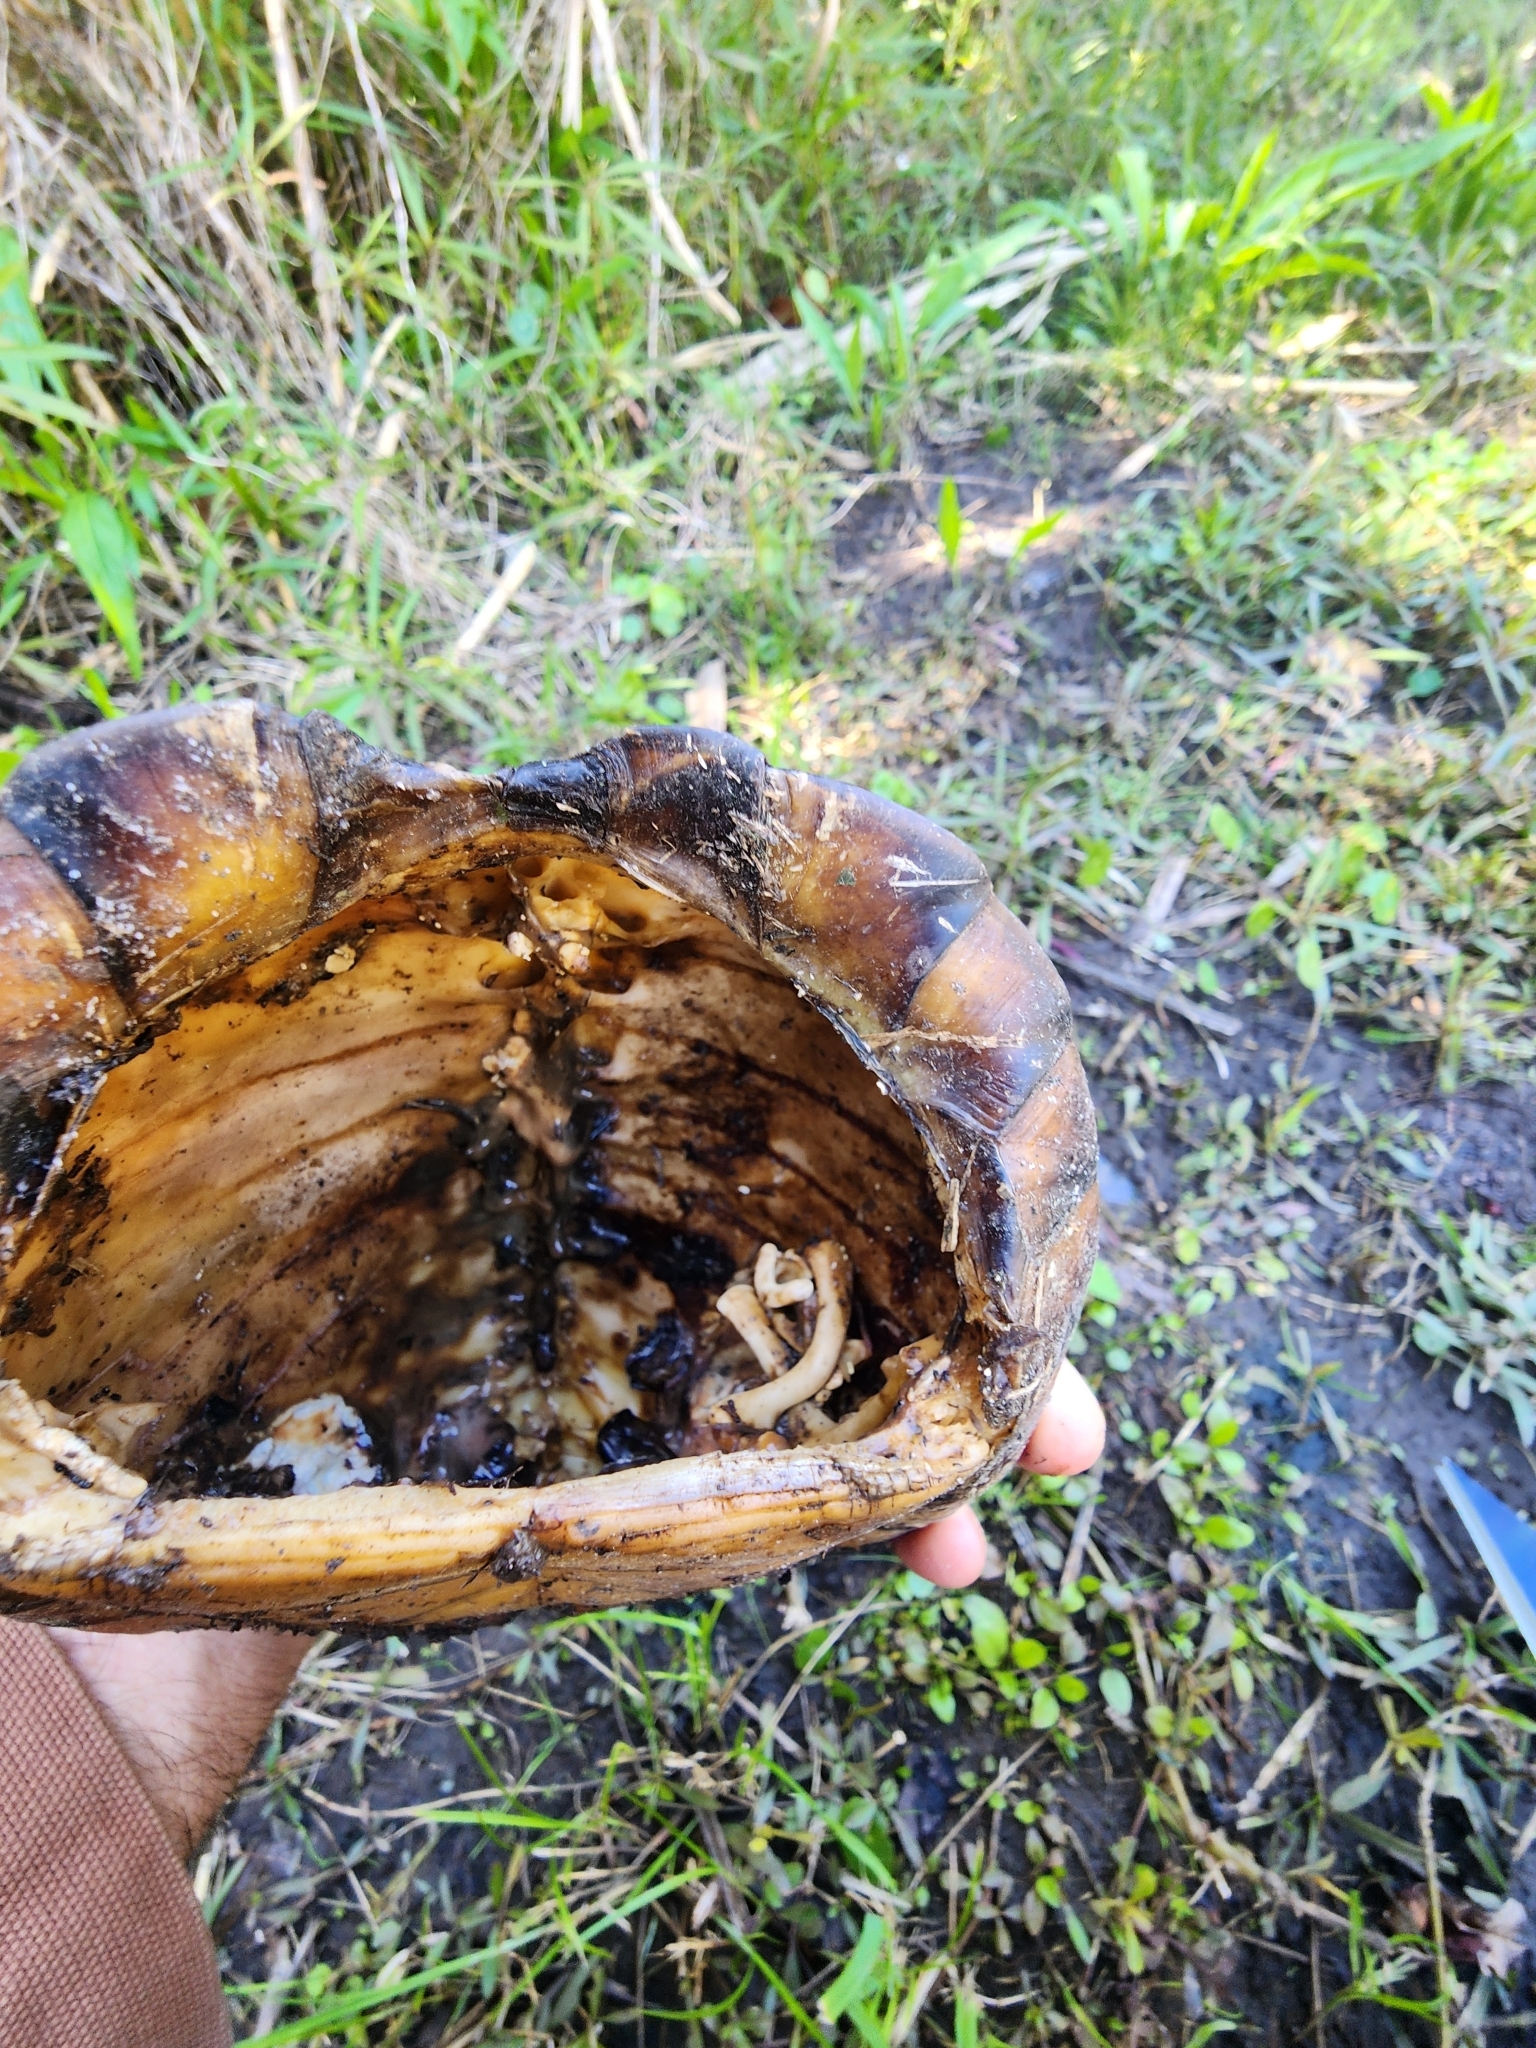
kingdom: Animalia
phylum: Chordata
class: Testudines
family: Emydidae
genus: Terrapene
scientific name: Terrapene carolina
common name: Common box turtle
